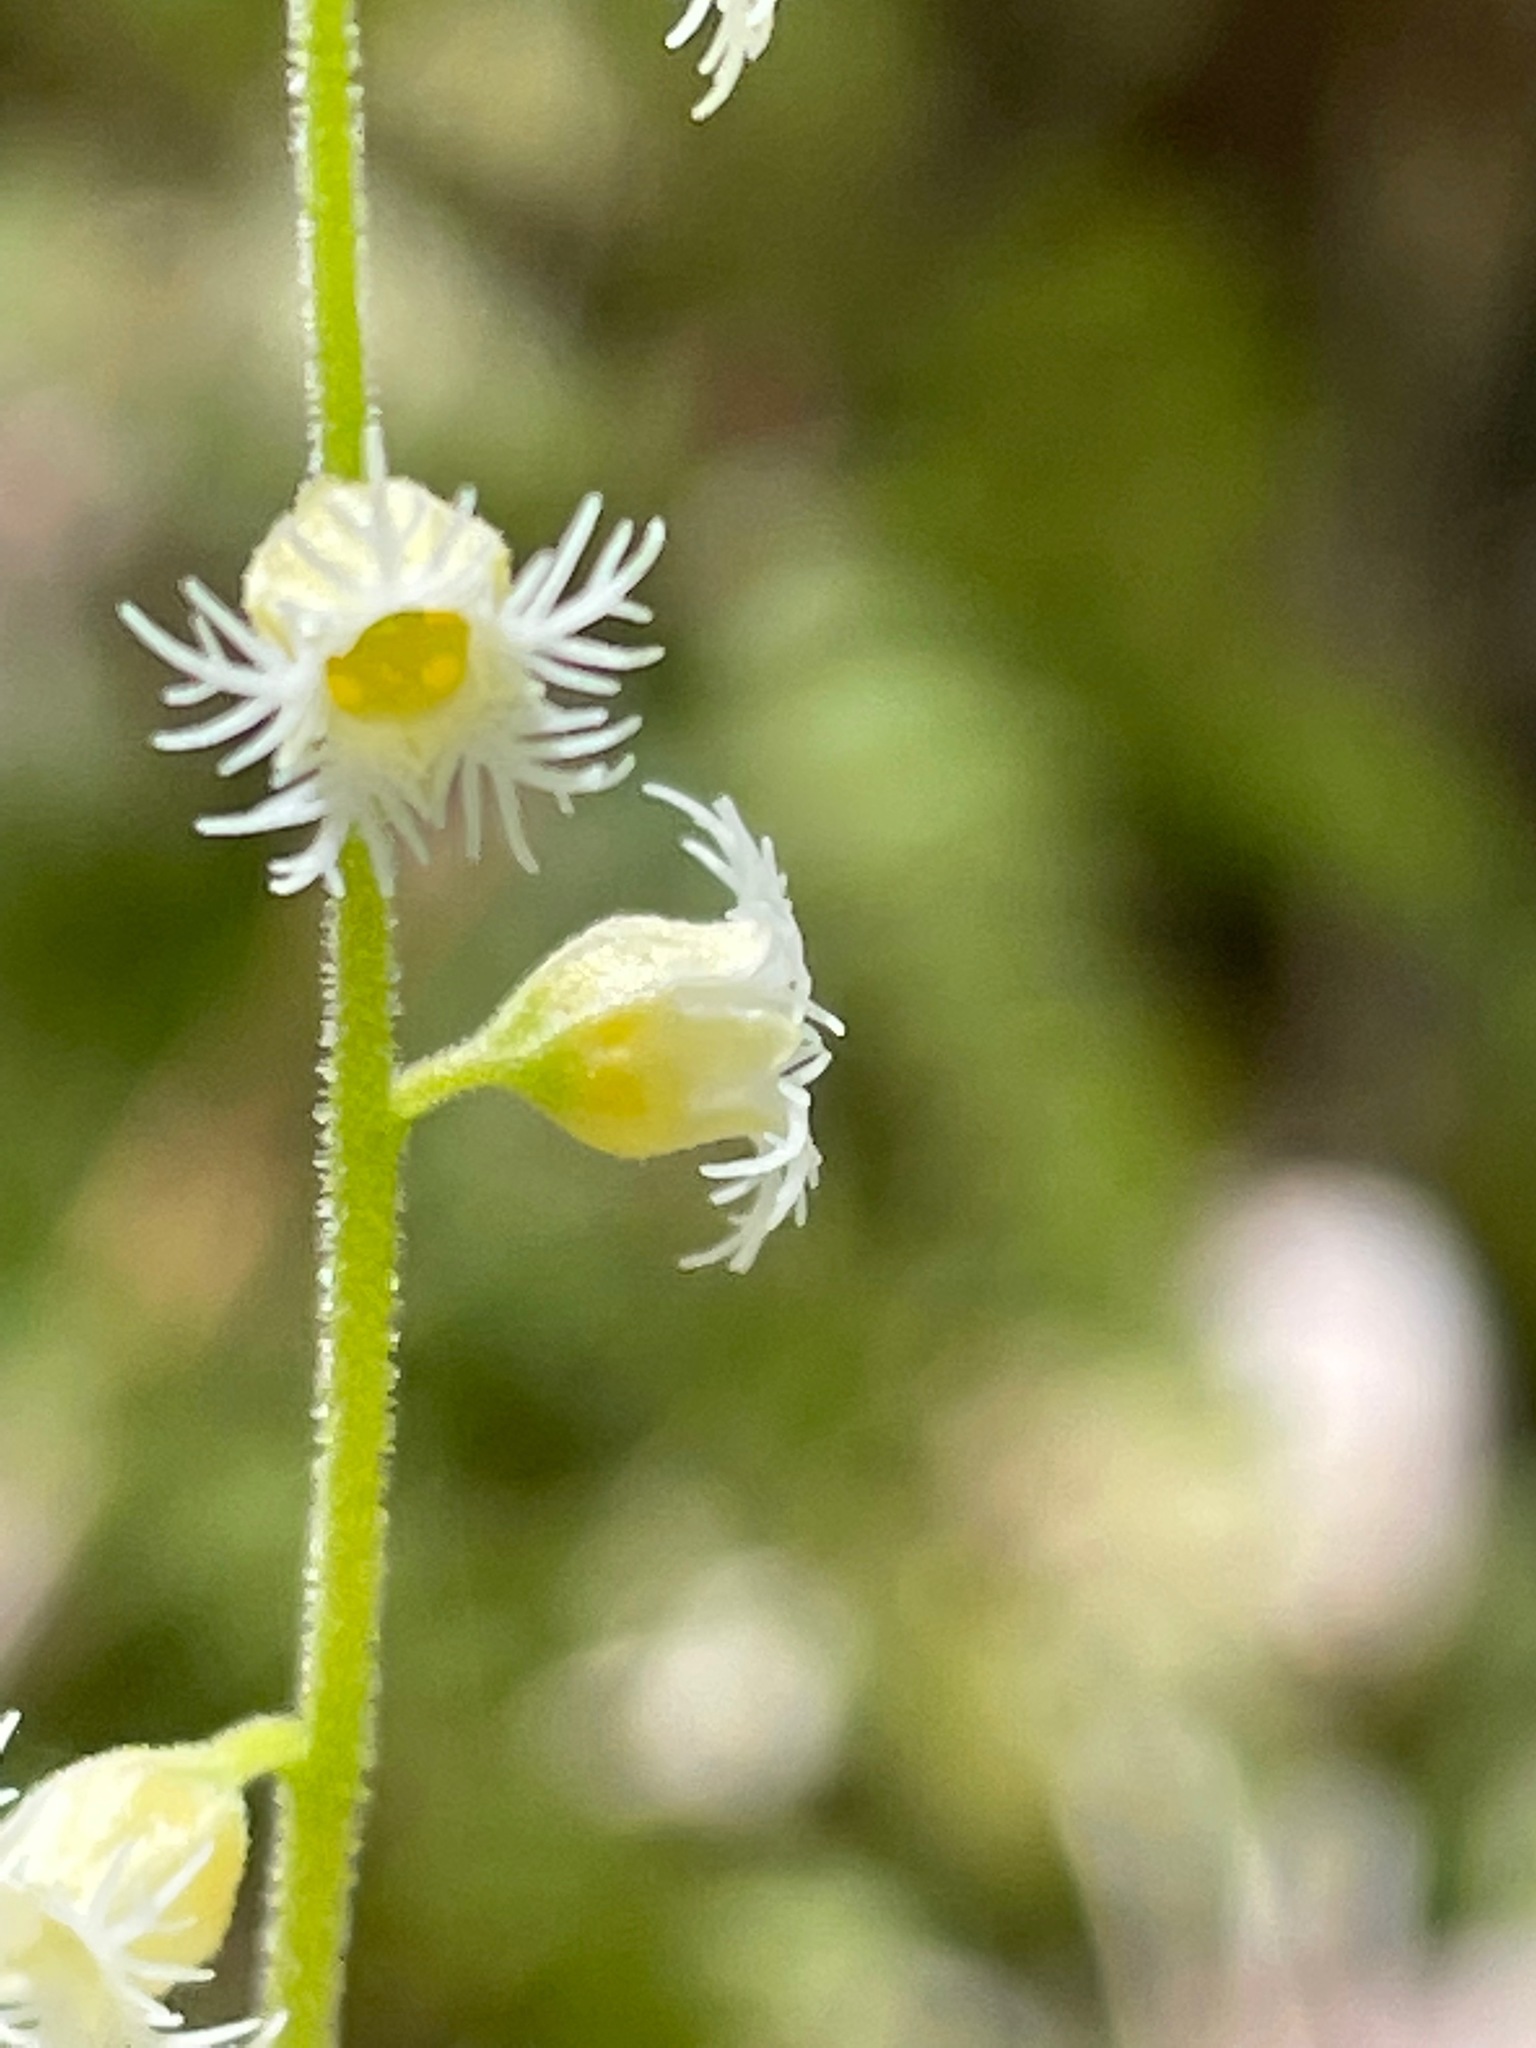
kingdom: Plantae
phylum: Tracheophyta
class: Magnoliopsida
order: Saxifragales
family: Saxifragaceae
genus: Mitella
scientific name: Mitella diphylla
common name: Coolwort
